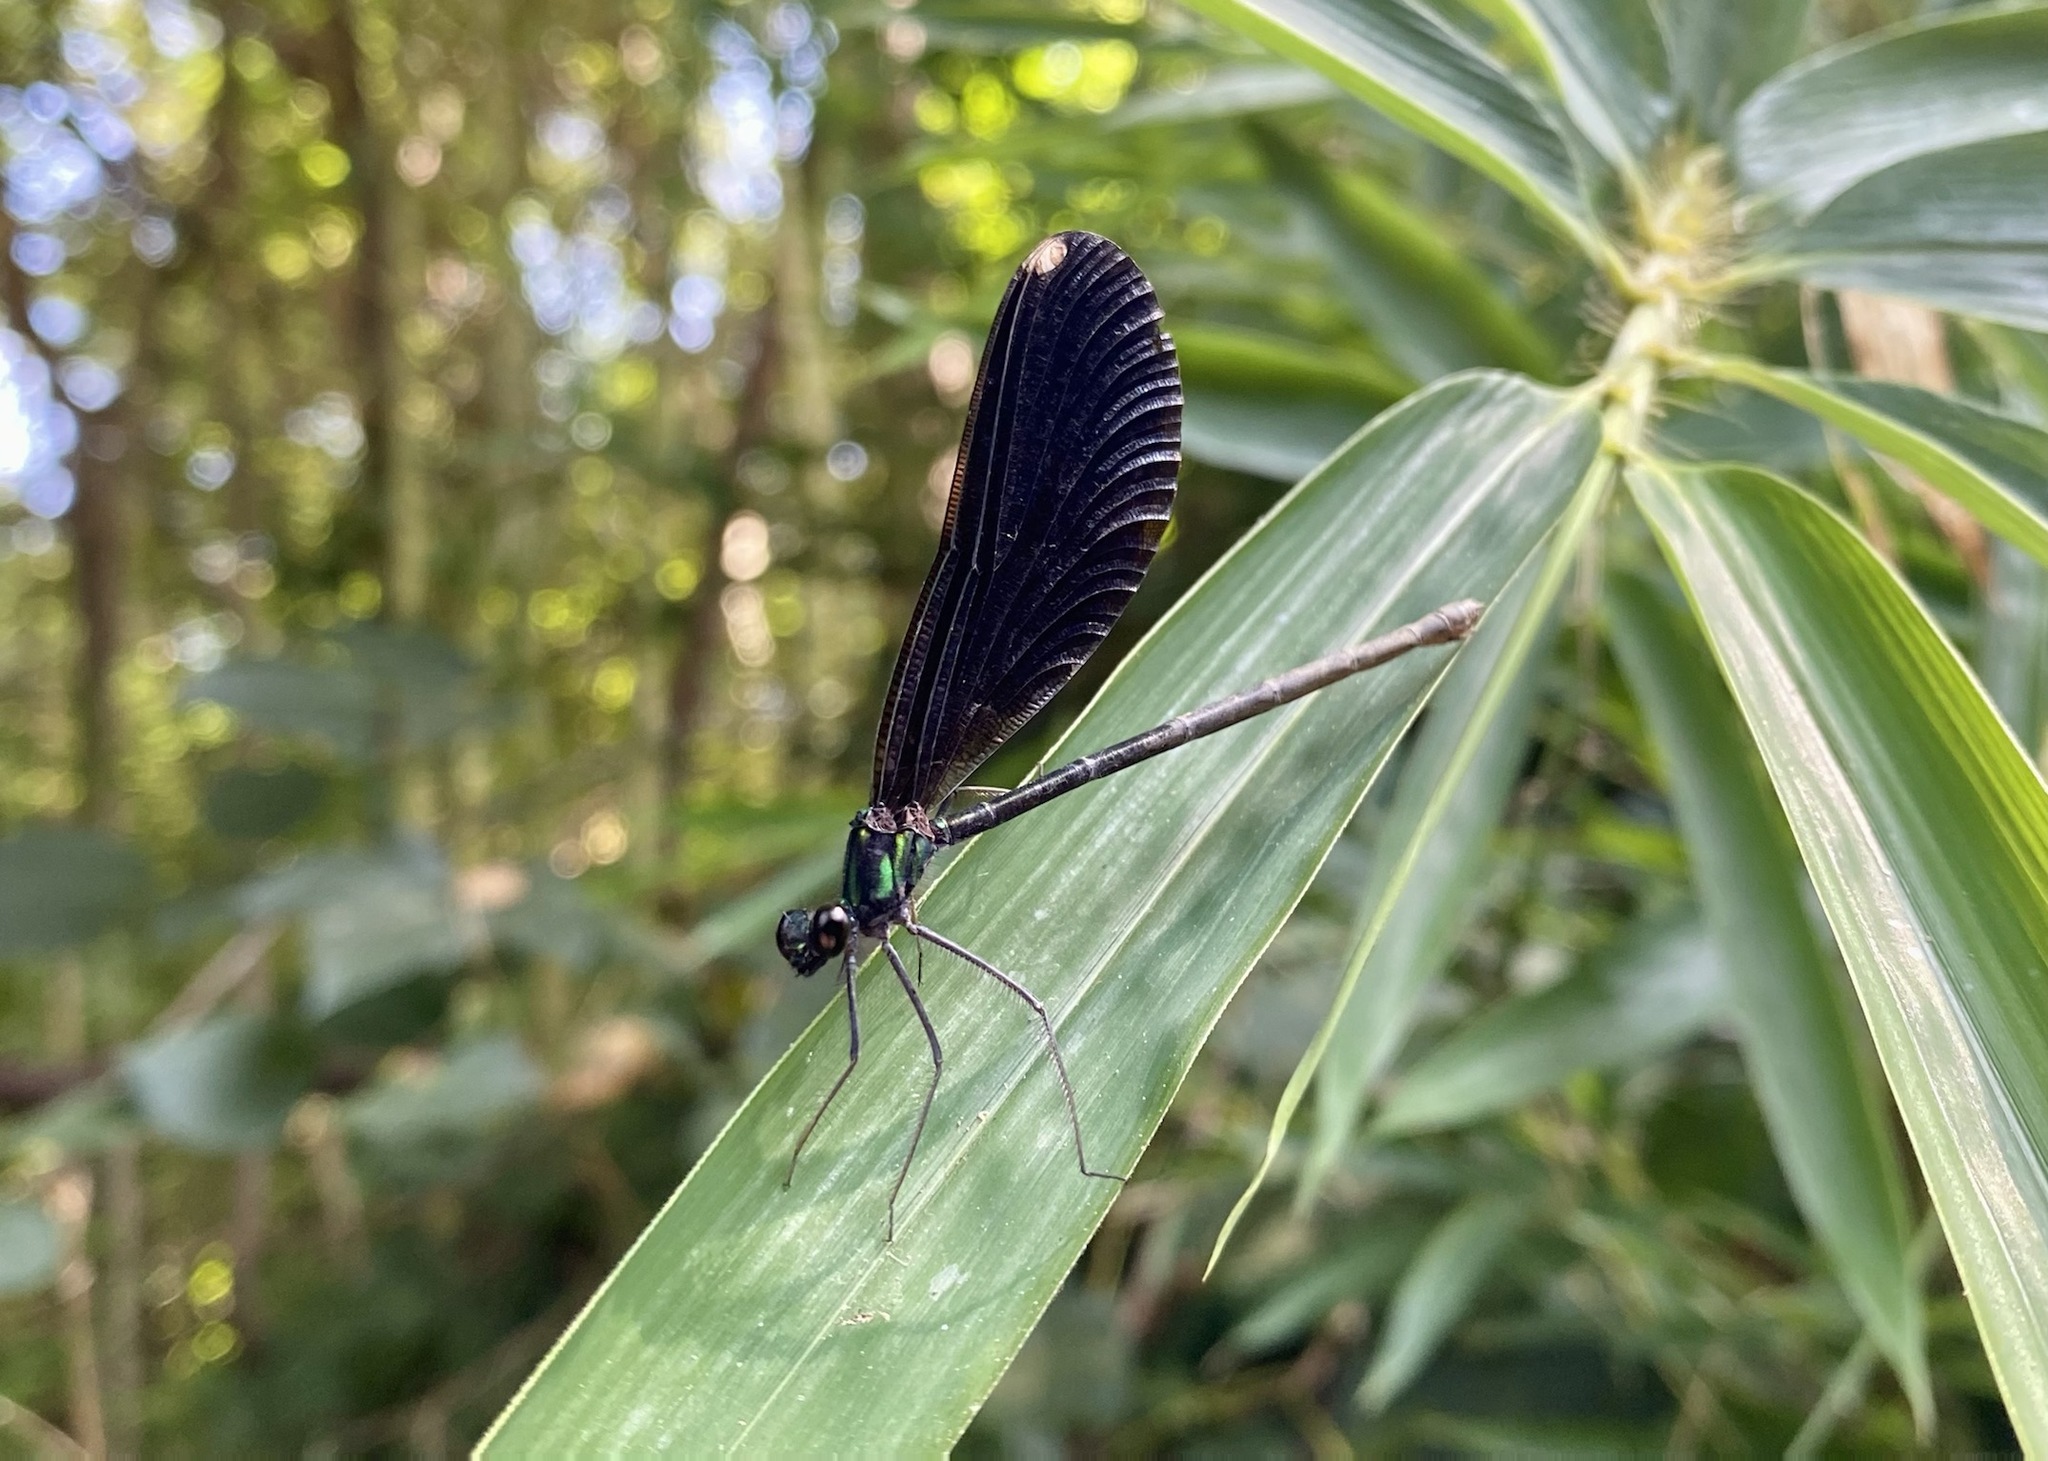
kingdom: Animalia
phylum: Arthropoda
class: Insecta
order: Odonata
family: Calopterygidae
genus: Calopteryx
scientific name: Calopteryx maculata
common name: Ebony jewelwing
